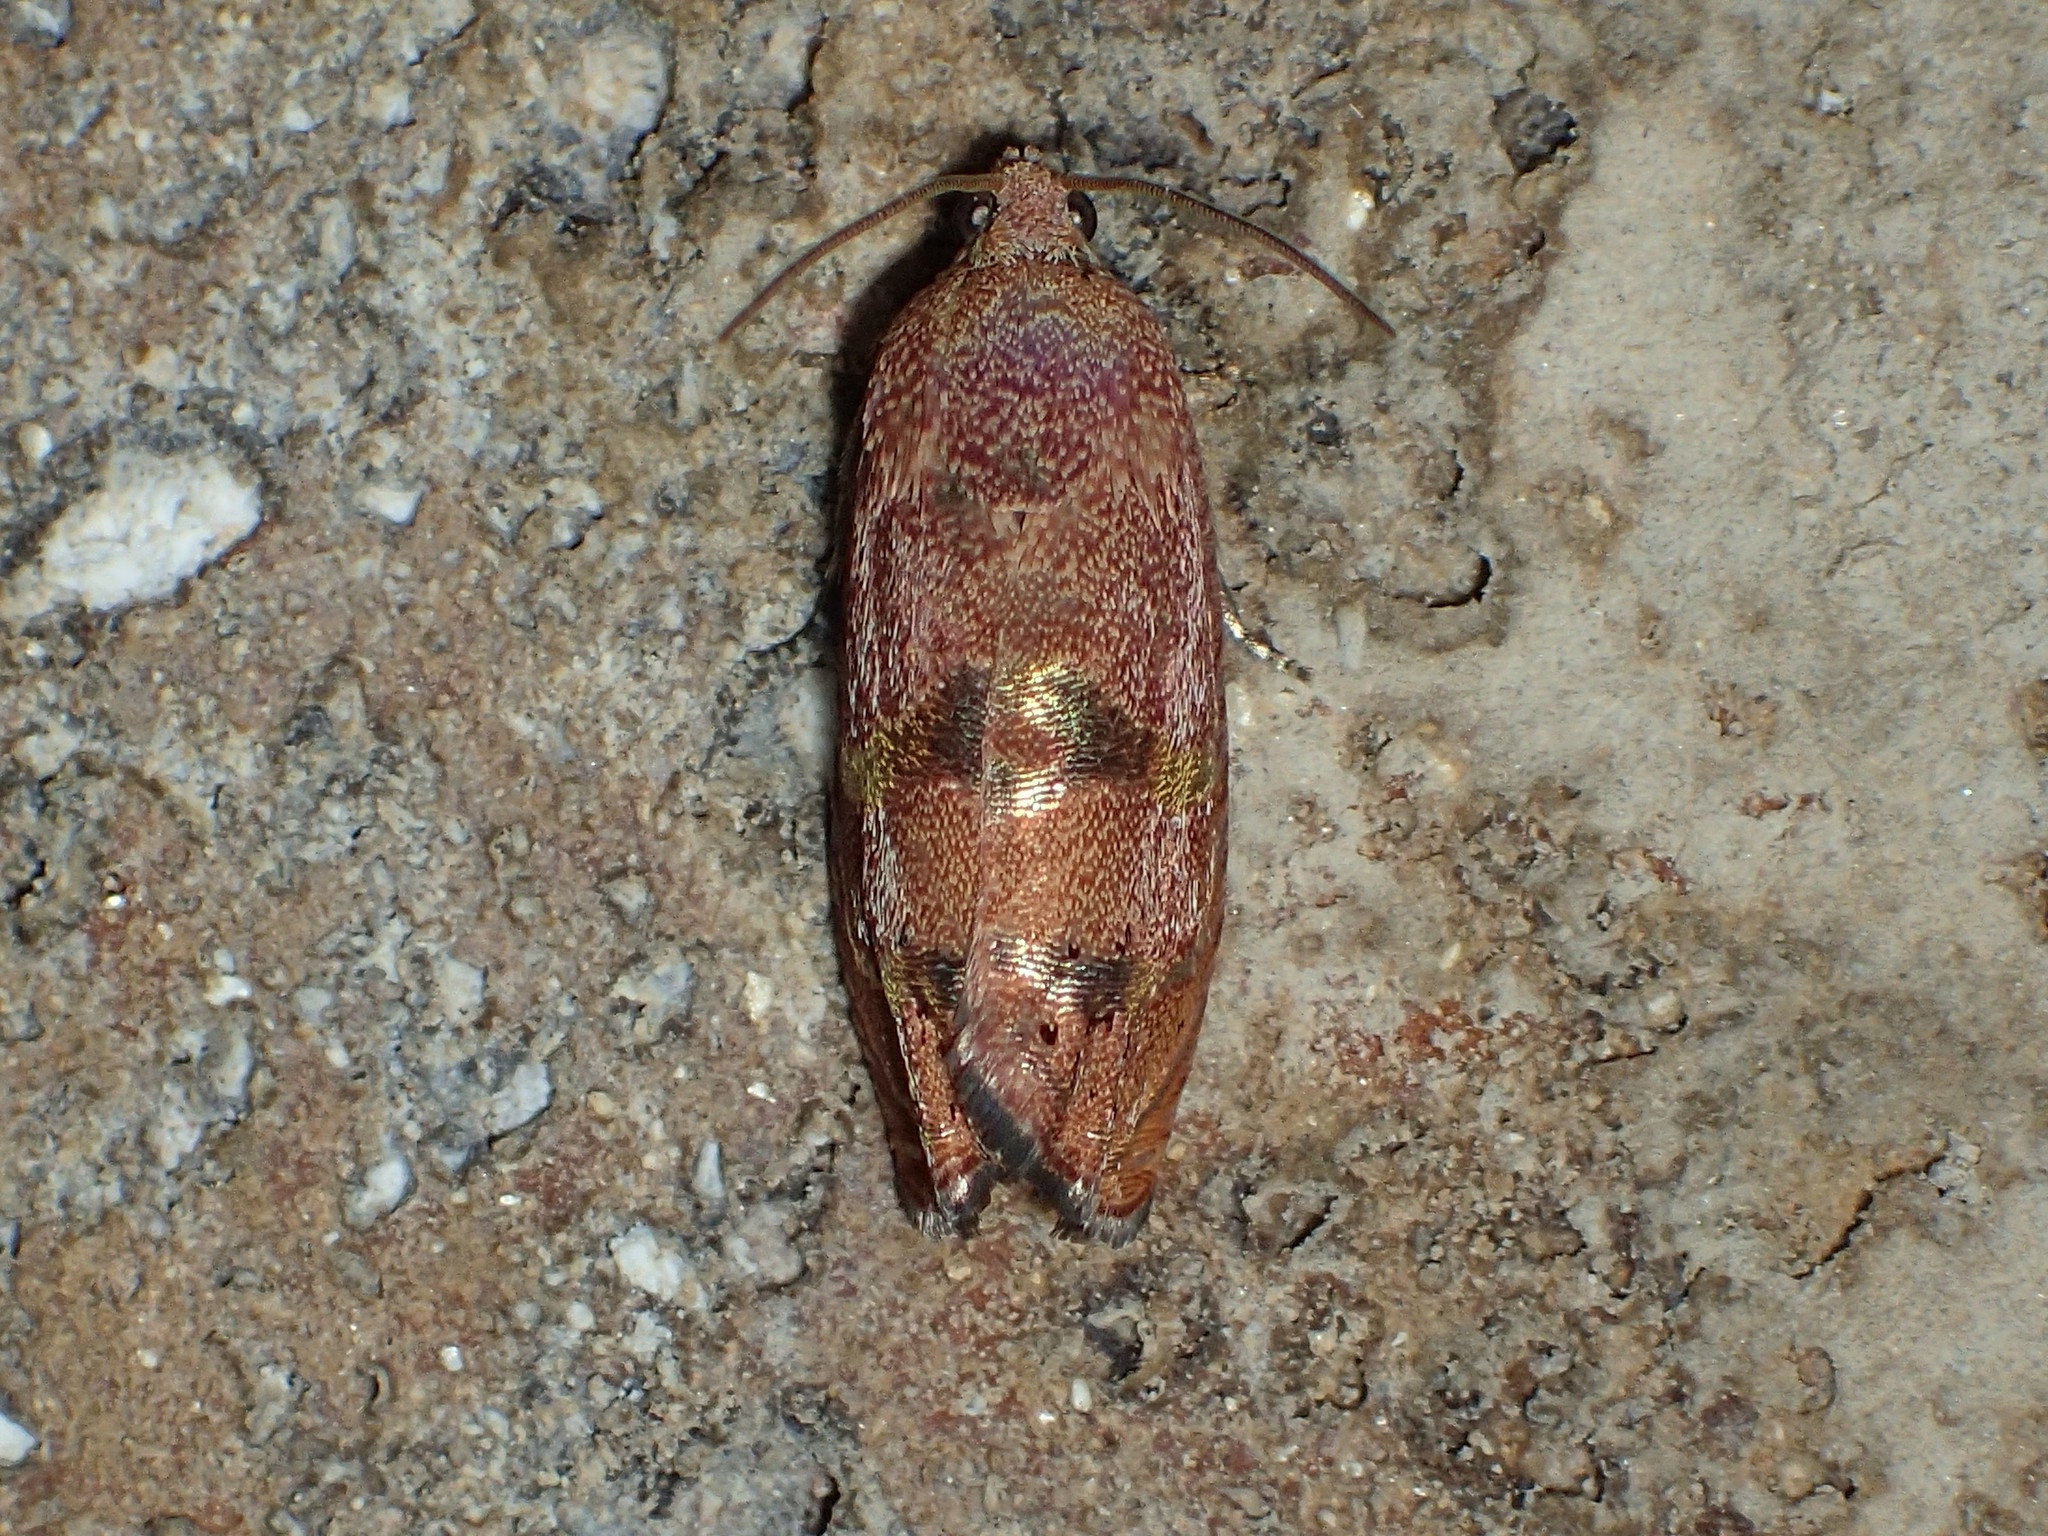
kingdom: Animalia
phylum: Arthropoda
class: Insecta
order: Lepidoptera
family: Tortricidae
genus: Cydia
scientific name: Cydia latiferreana
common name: Filbertworm moth
